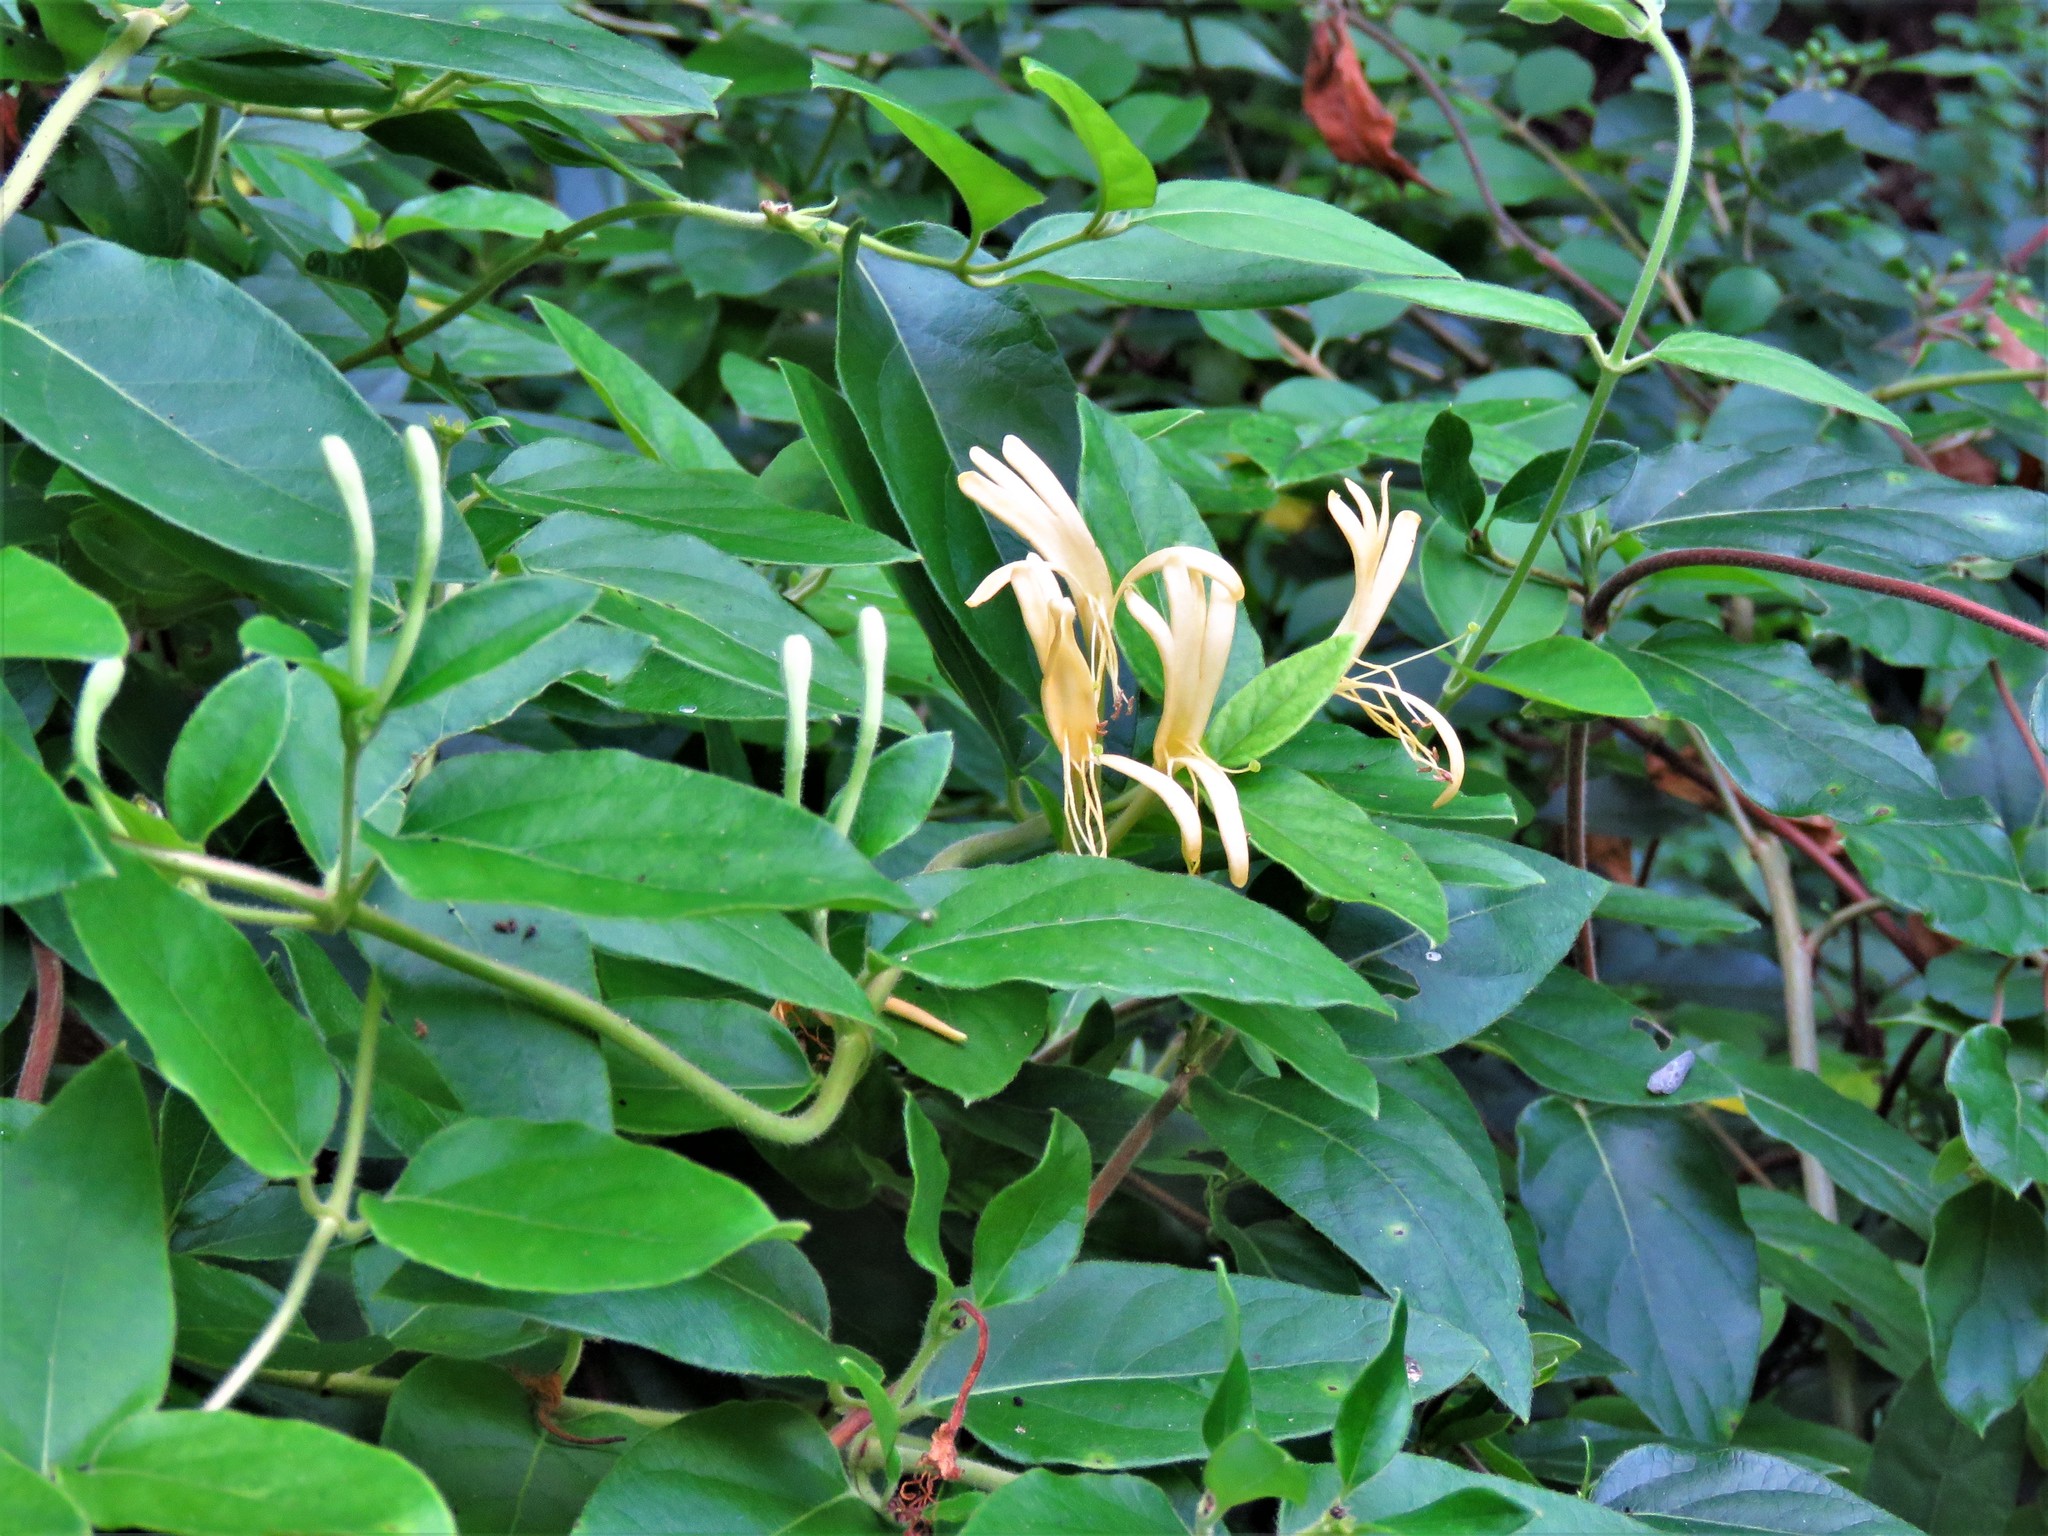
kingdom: Plantae
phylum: Tracheophyta
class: Magnoliopsida
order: Dipsacales
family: Caprifoliaceae
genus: Lonicera
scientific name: Lonicera japonica
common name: Japanese honeysuckle
